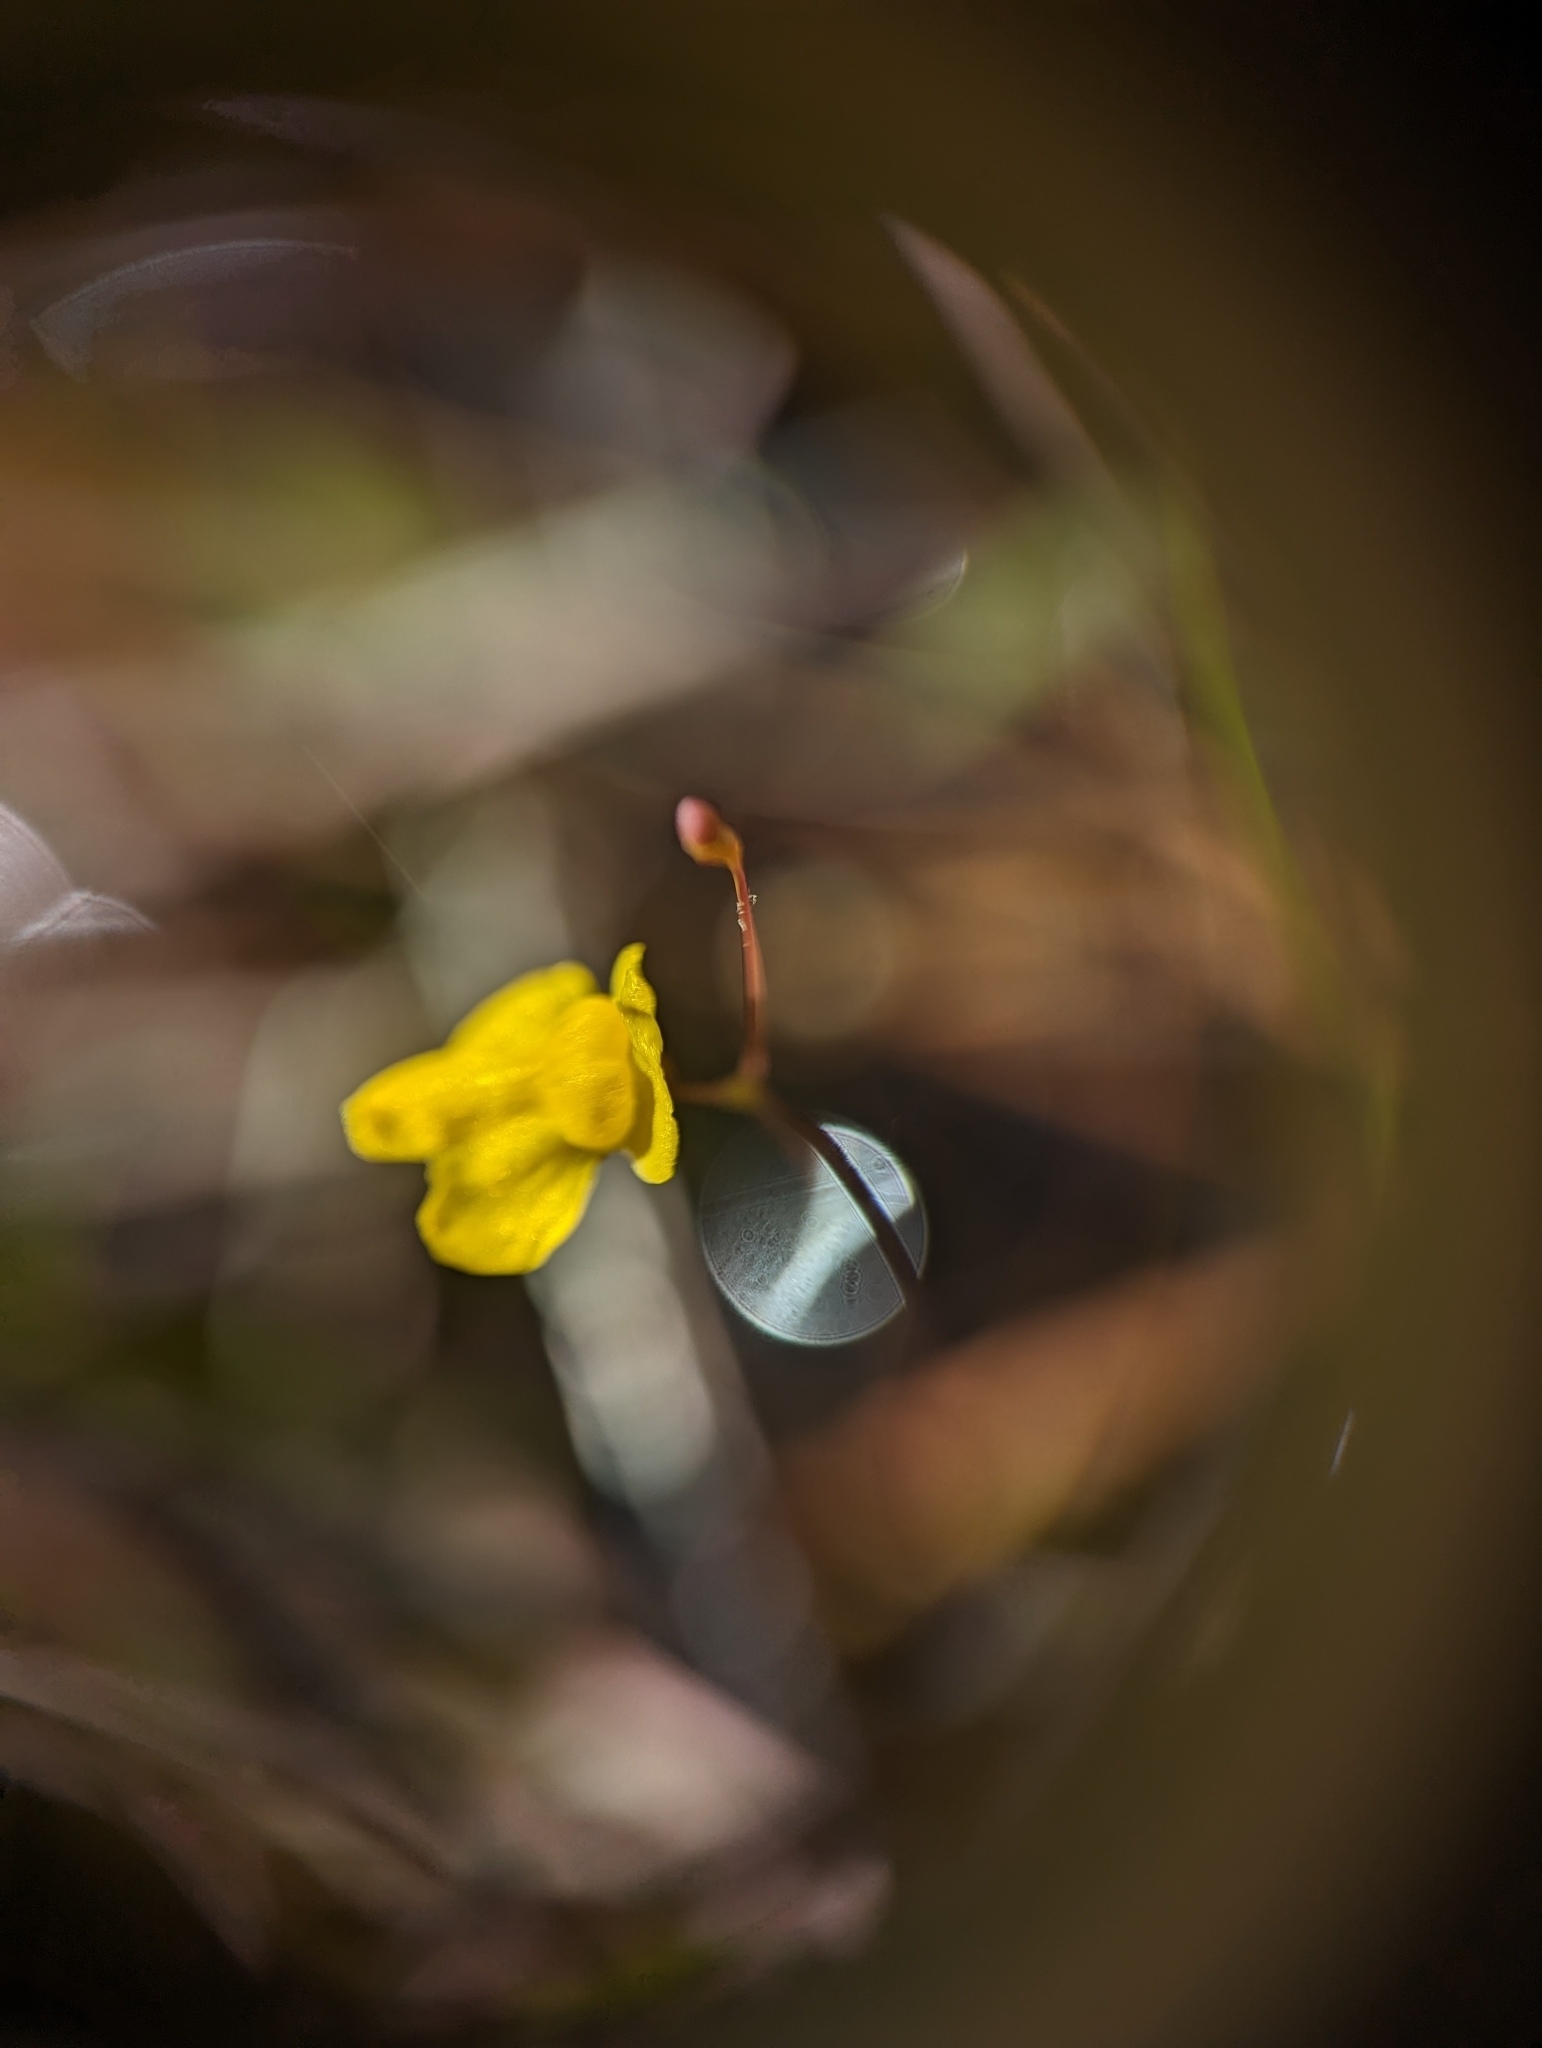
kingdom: Plantae
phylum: Tracheophyta
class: Magnoliopsida
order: Lamiales
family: Lentibulariaceae
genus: Utricularia
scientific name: Utricularia subulata
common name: Tiny bladderwort
